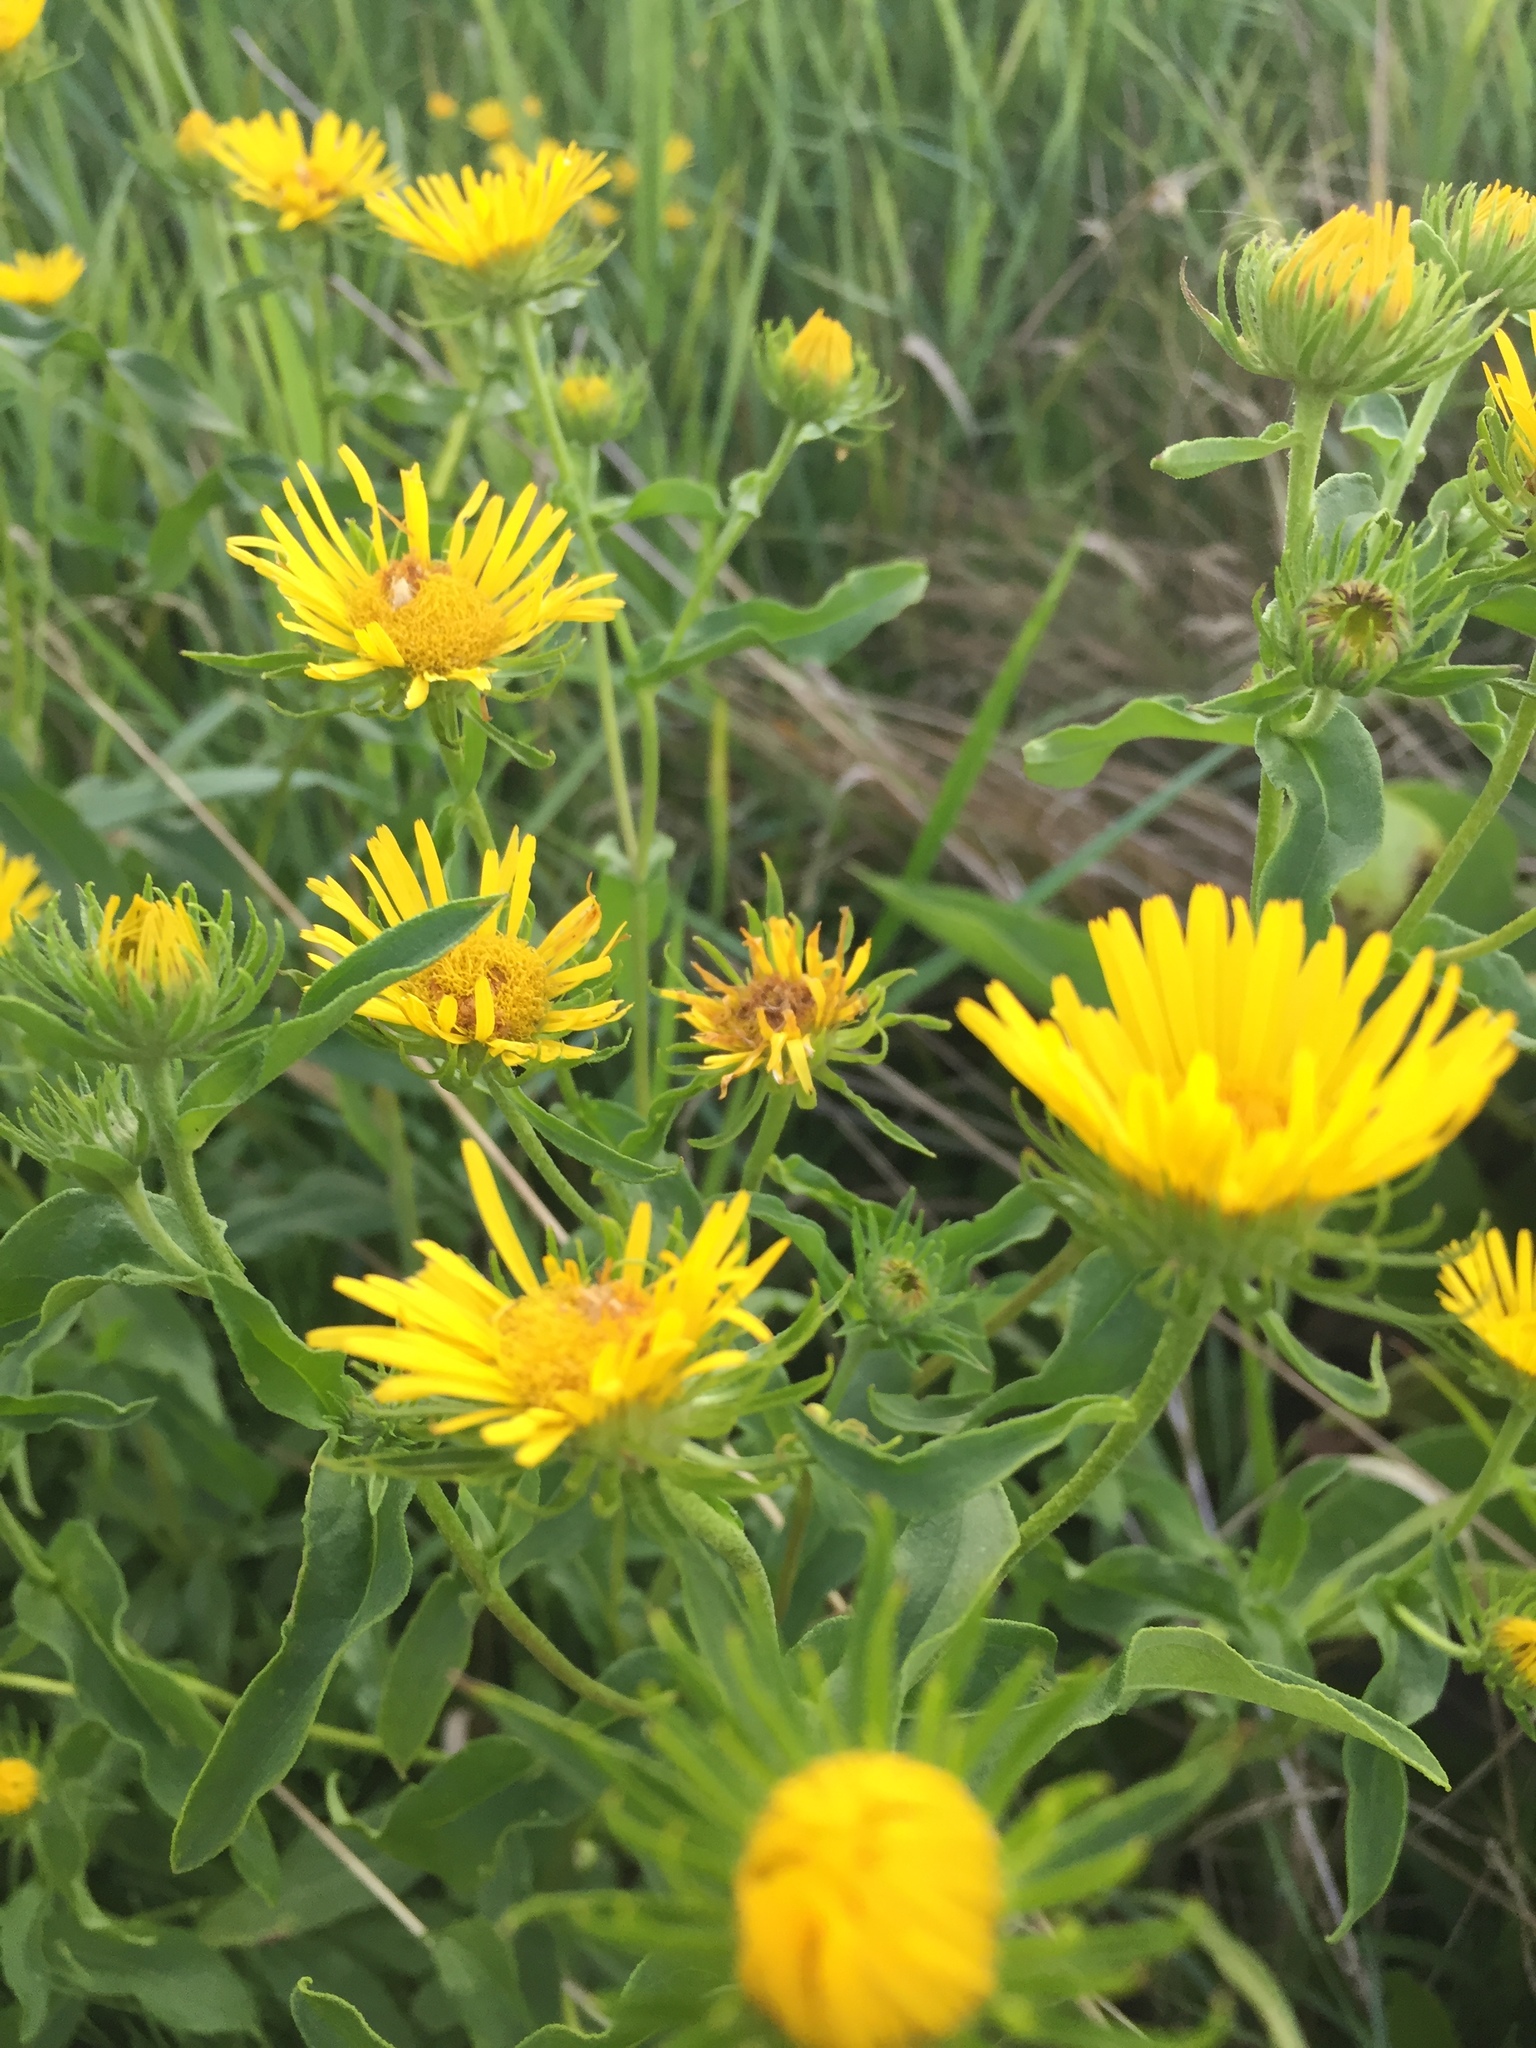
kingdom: Plantae
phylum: Tracheophyta
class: Magnoliopsida
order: Asterales
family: Asteraceae
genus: Inula
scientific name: Inula helenium
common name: Elecampane
